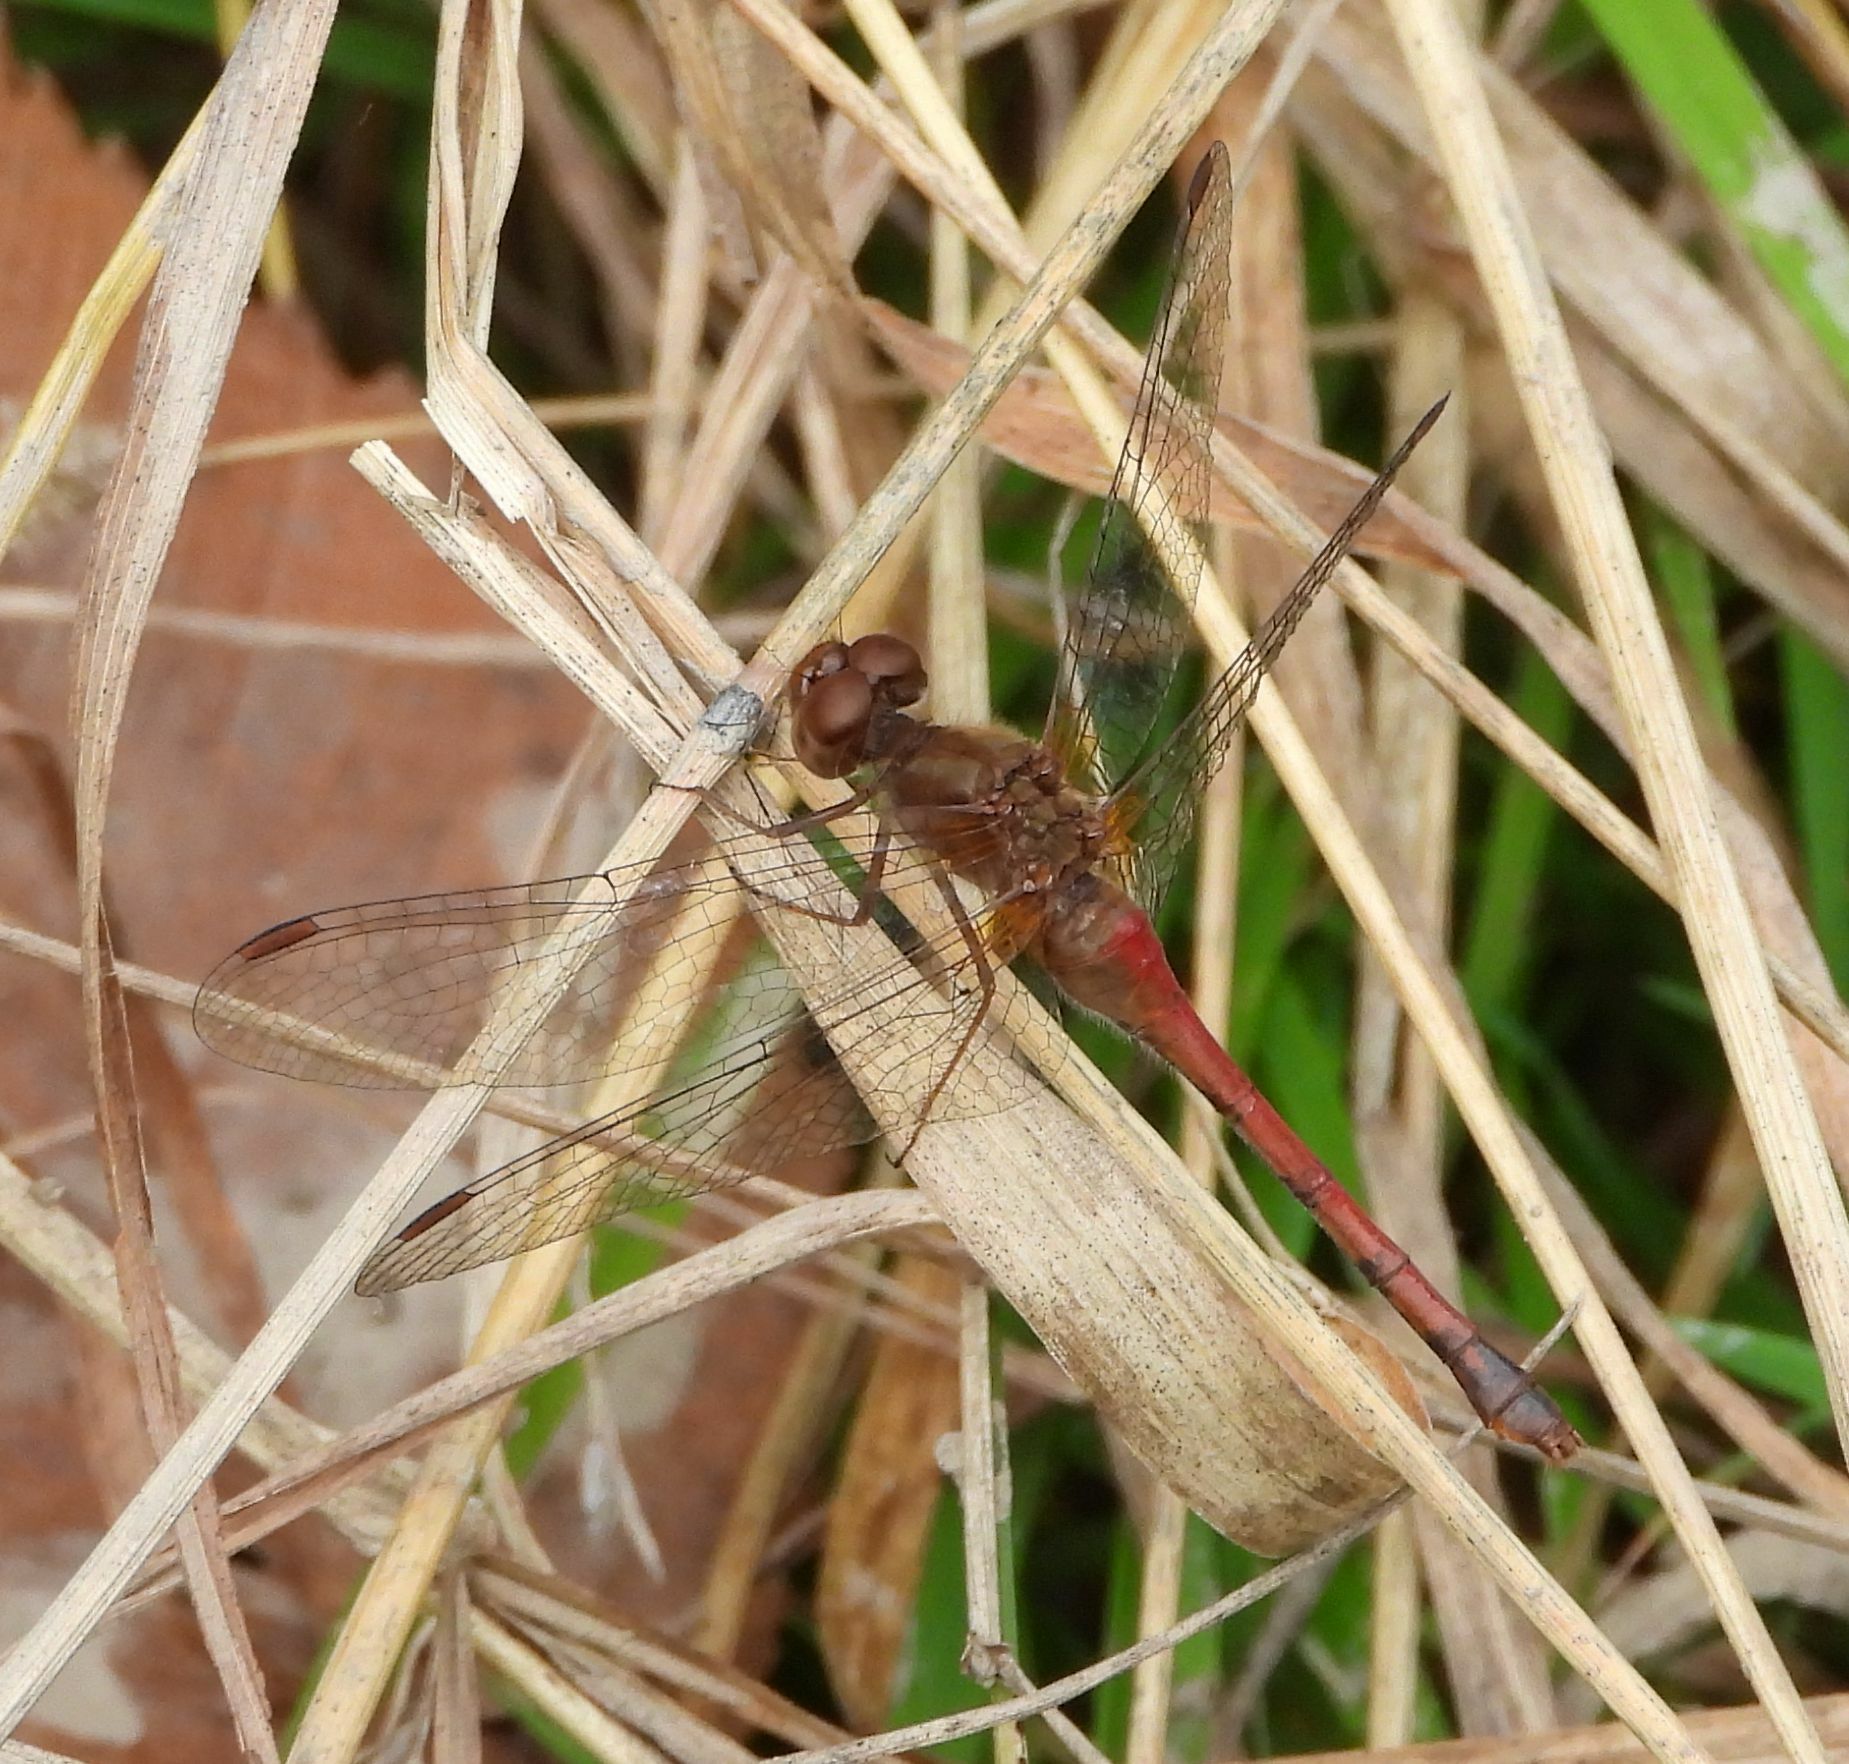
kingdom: Animalia
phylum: Arthropoda
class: Insecta
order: Odonata
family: Libellulidae
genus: Sympetrum
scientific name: Sympetrum vicinum
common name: Autumn meadowhawk
